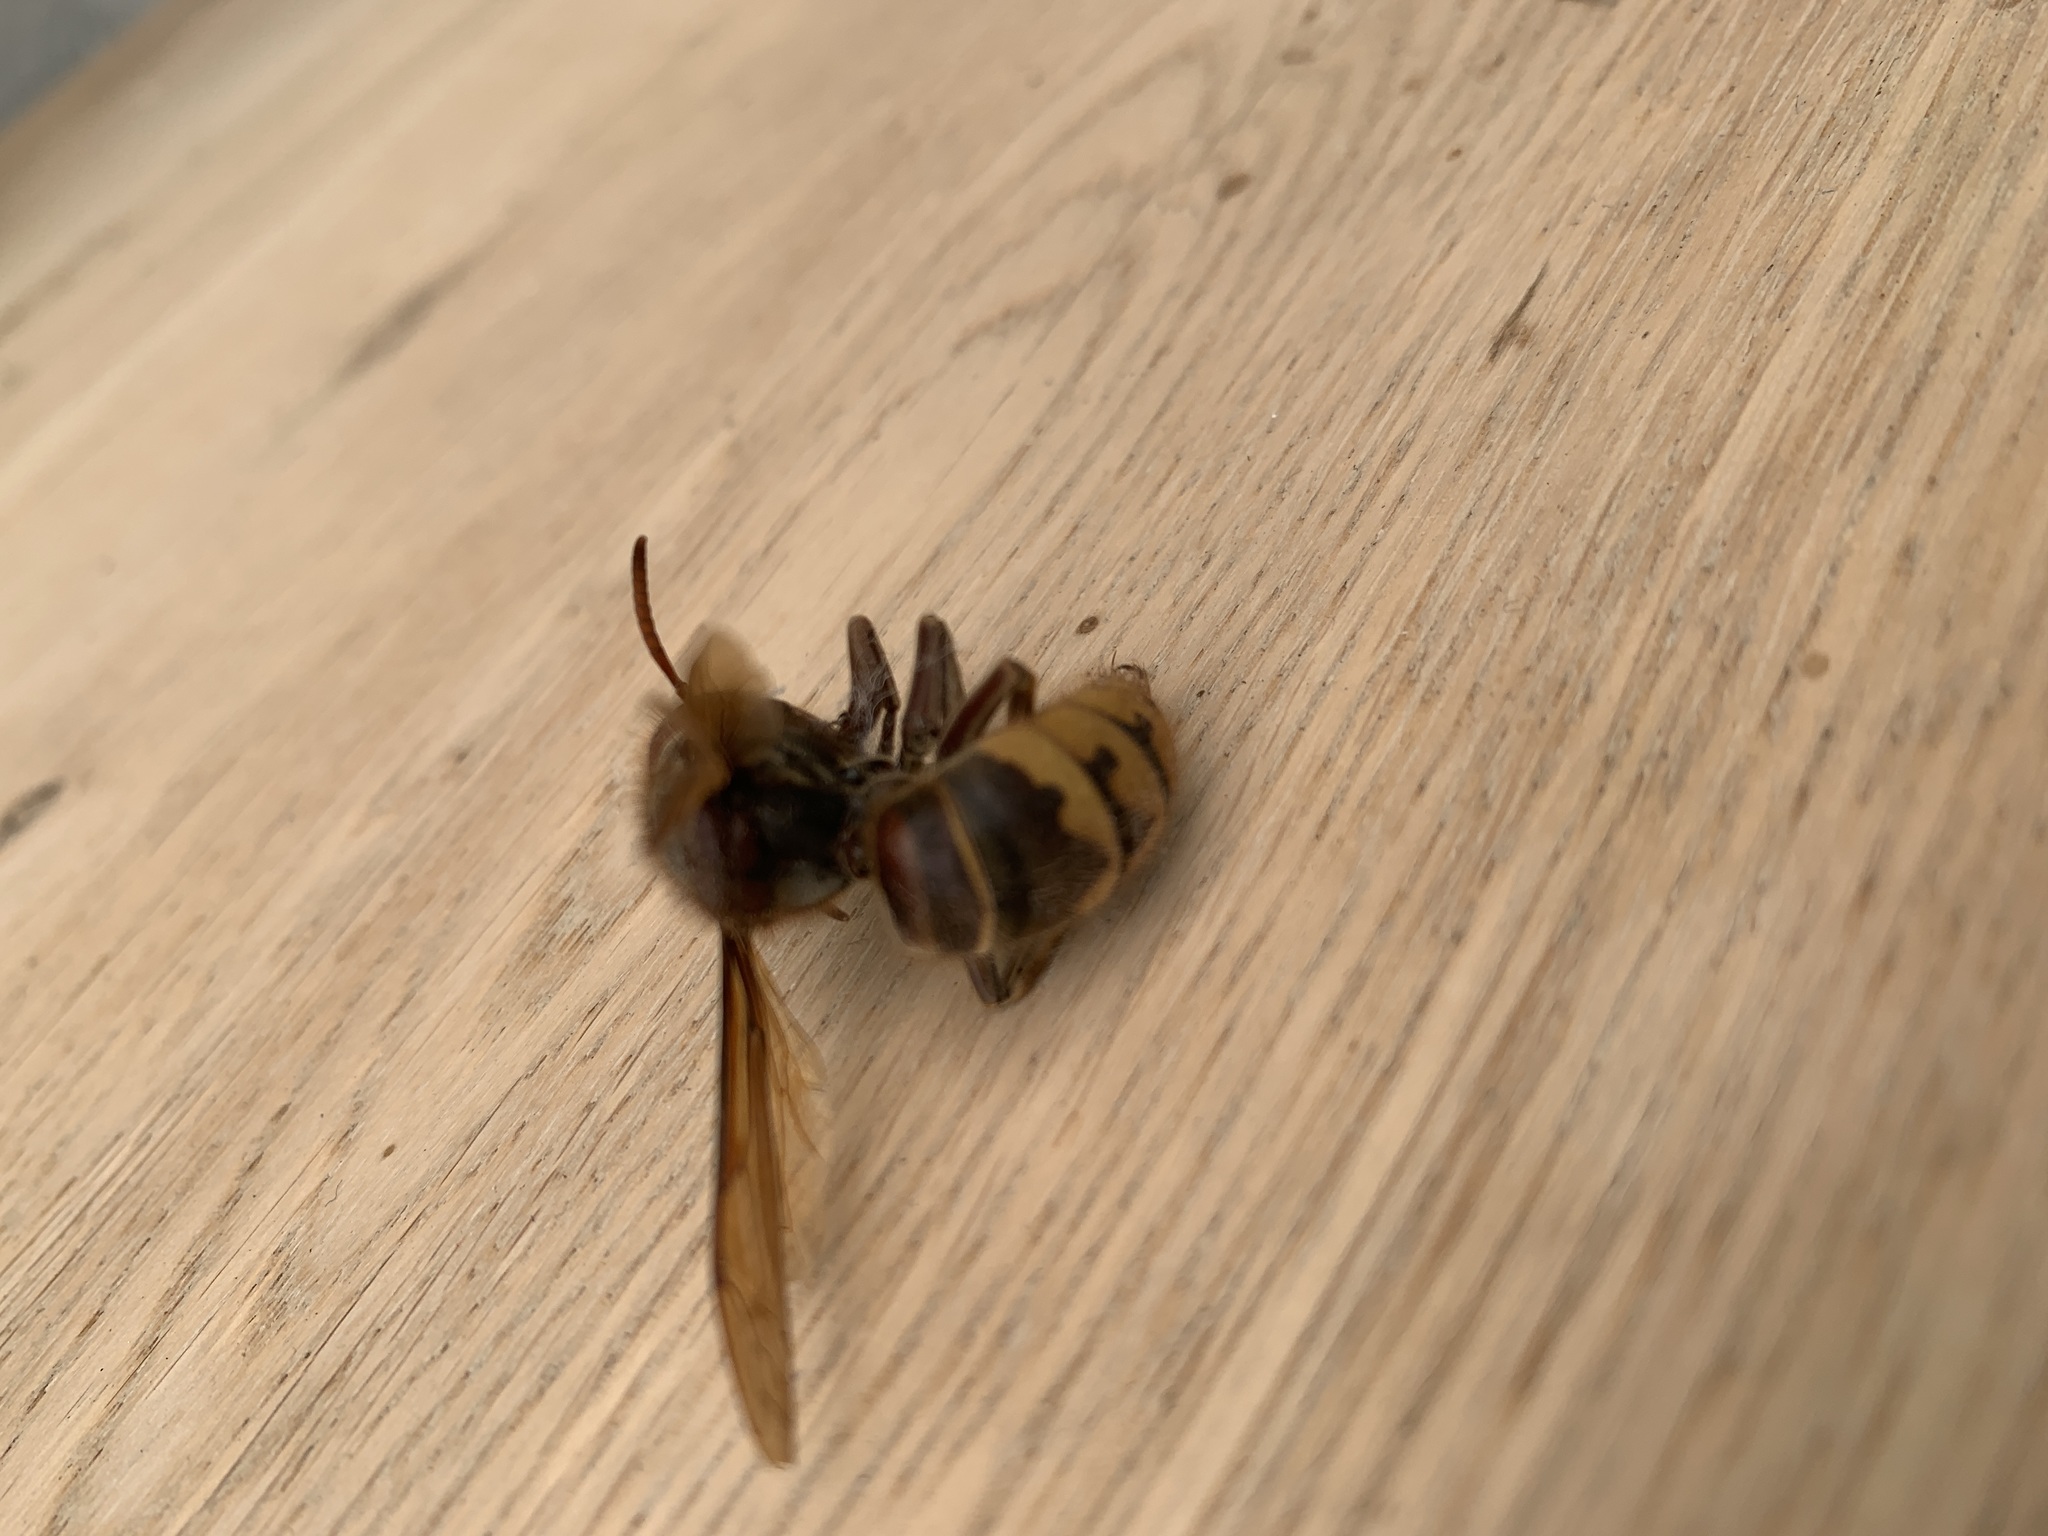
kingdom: Animalia
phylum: Arthropoda
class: Insecta
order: Hymenoptera
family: Vespidae
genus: Vespa
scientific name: Vespa crabro
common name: Hornet
